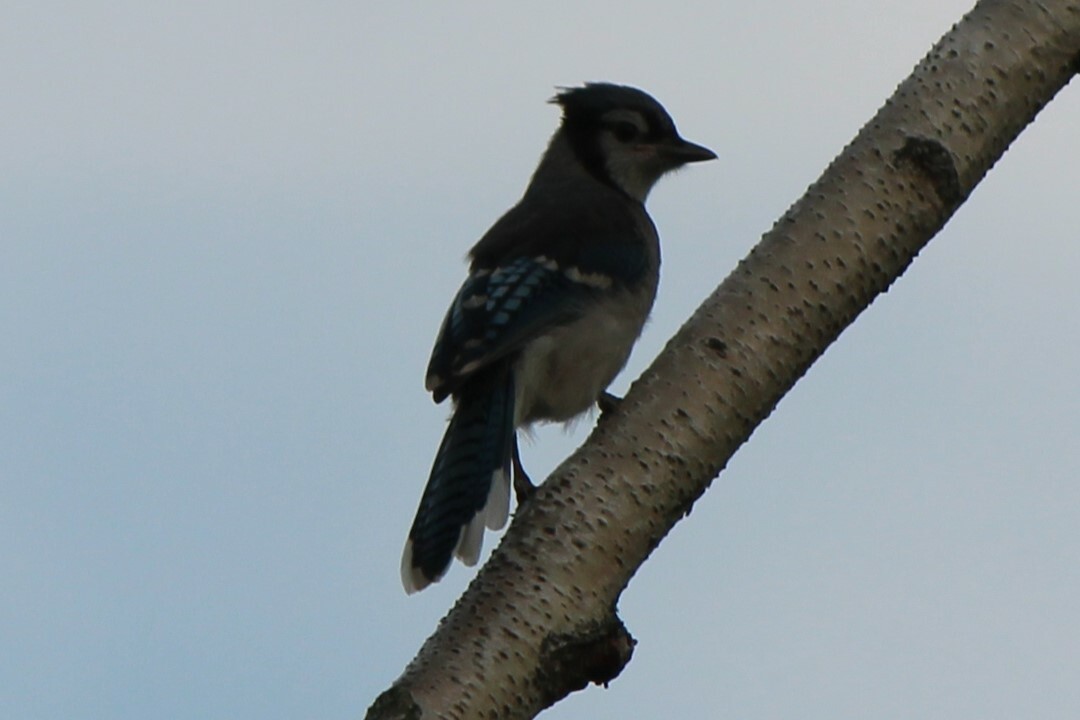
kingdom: Animalia
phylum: Chordata
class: Aves
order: Passeriformes
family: Corvidae
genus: Cyanocitta
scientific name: Cyanocitta cristata
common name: Blue jay
